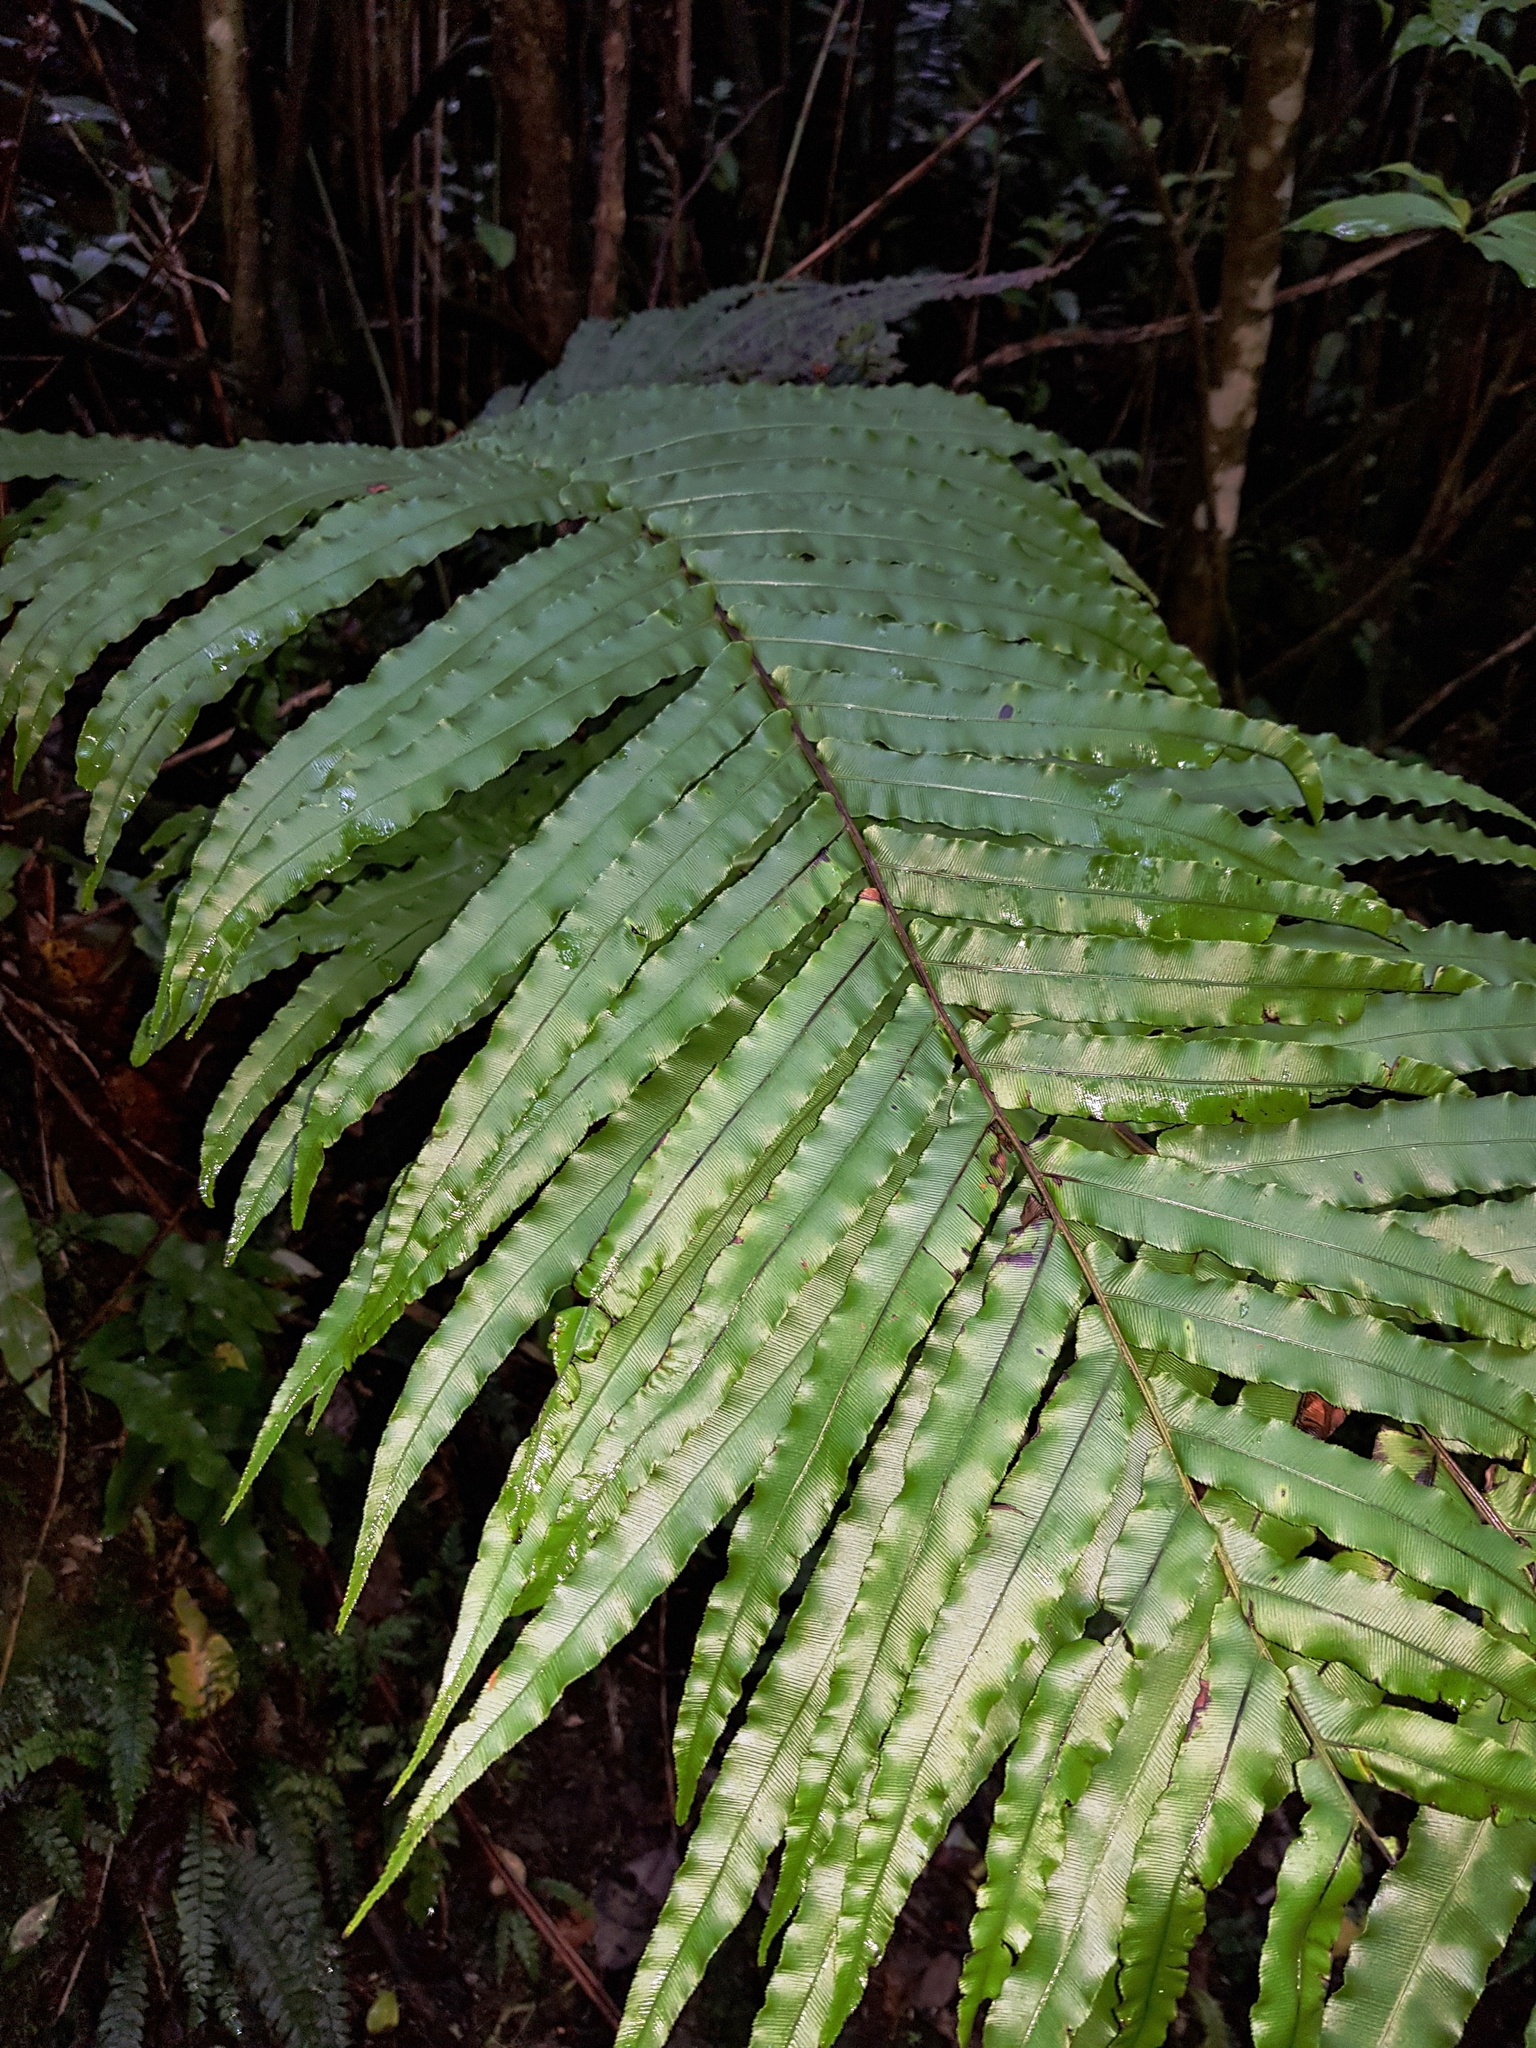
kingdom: Plantae
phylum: Tracheophyta
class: Polypodiopsida
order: Polypodiales
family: Blechnaceae
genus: Parablechnum
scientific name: Parablechnum novae-zelandiae
